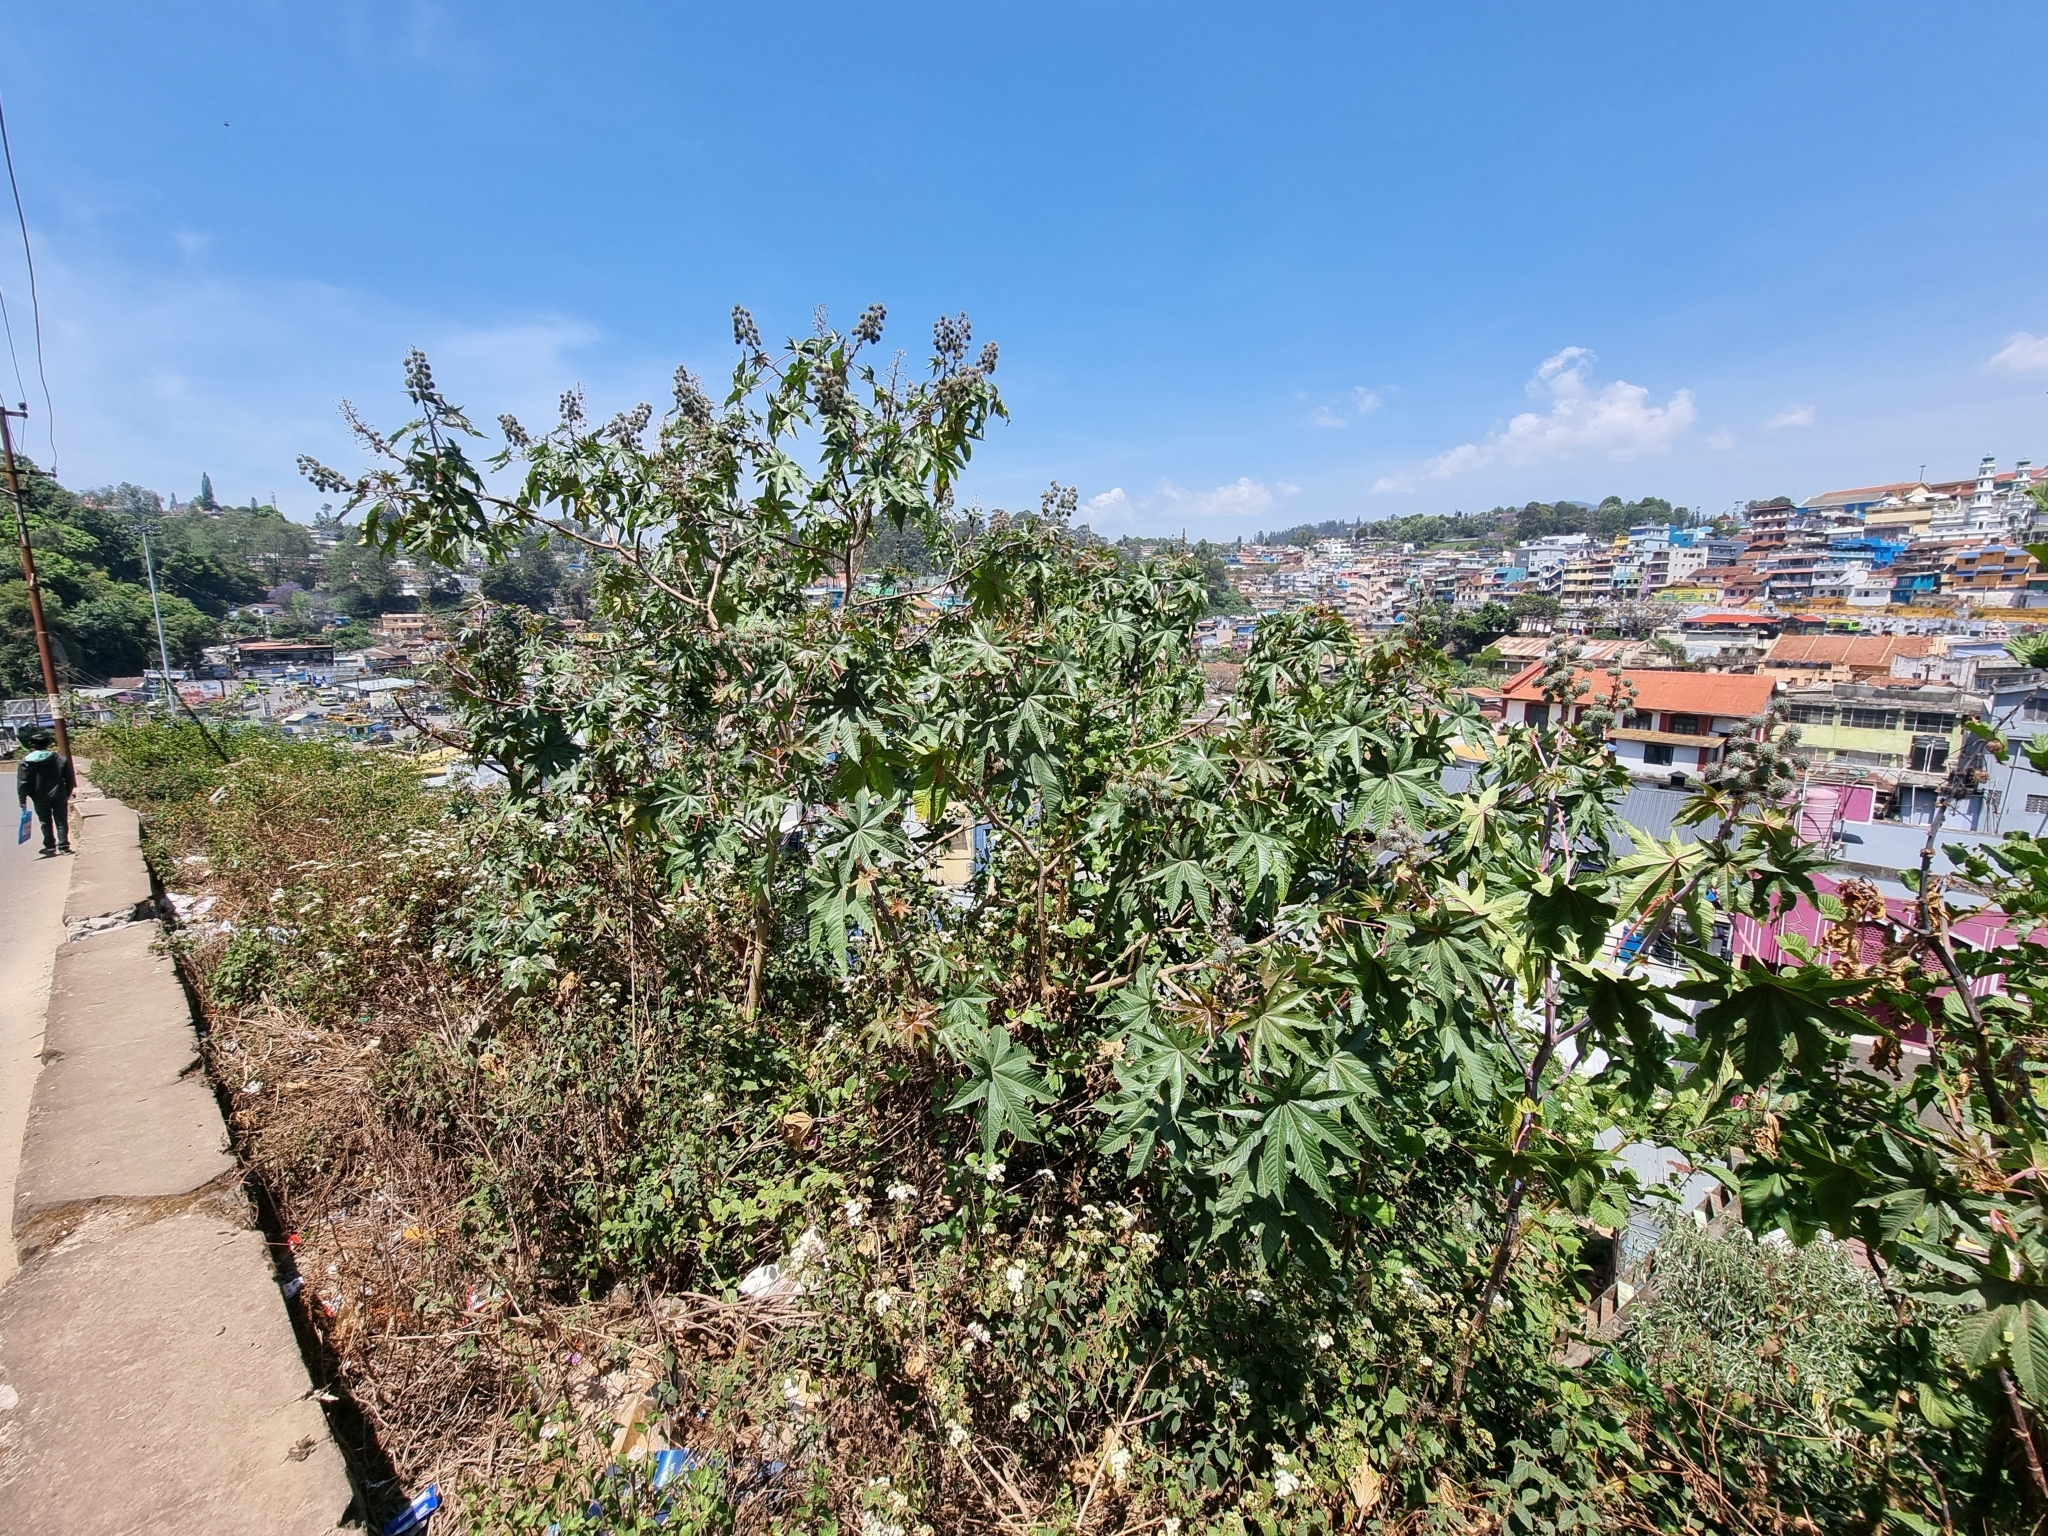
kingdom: Plantae
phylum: Tracheophyta
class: Magnoliopsida
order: Malpighiales
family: Euphorbiaceae
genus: Ricinus
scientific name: Ricinus communis
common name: Castor-oil-plant
